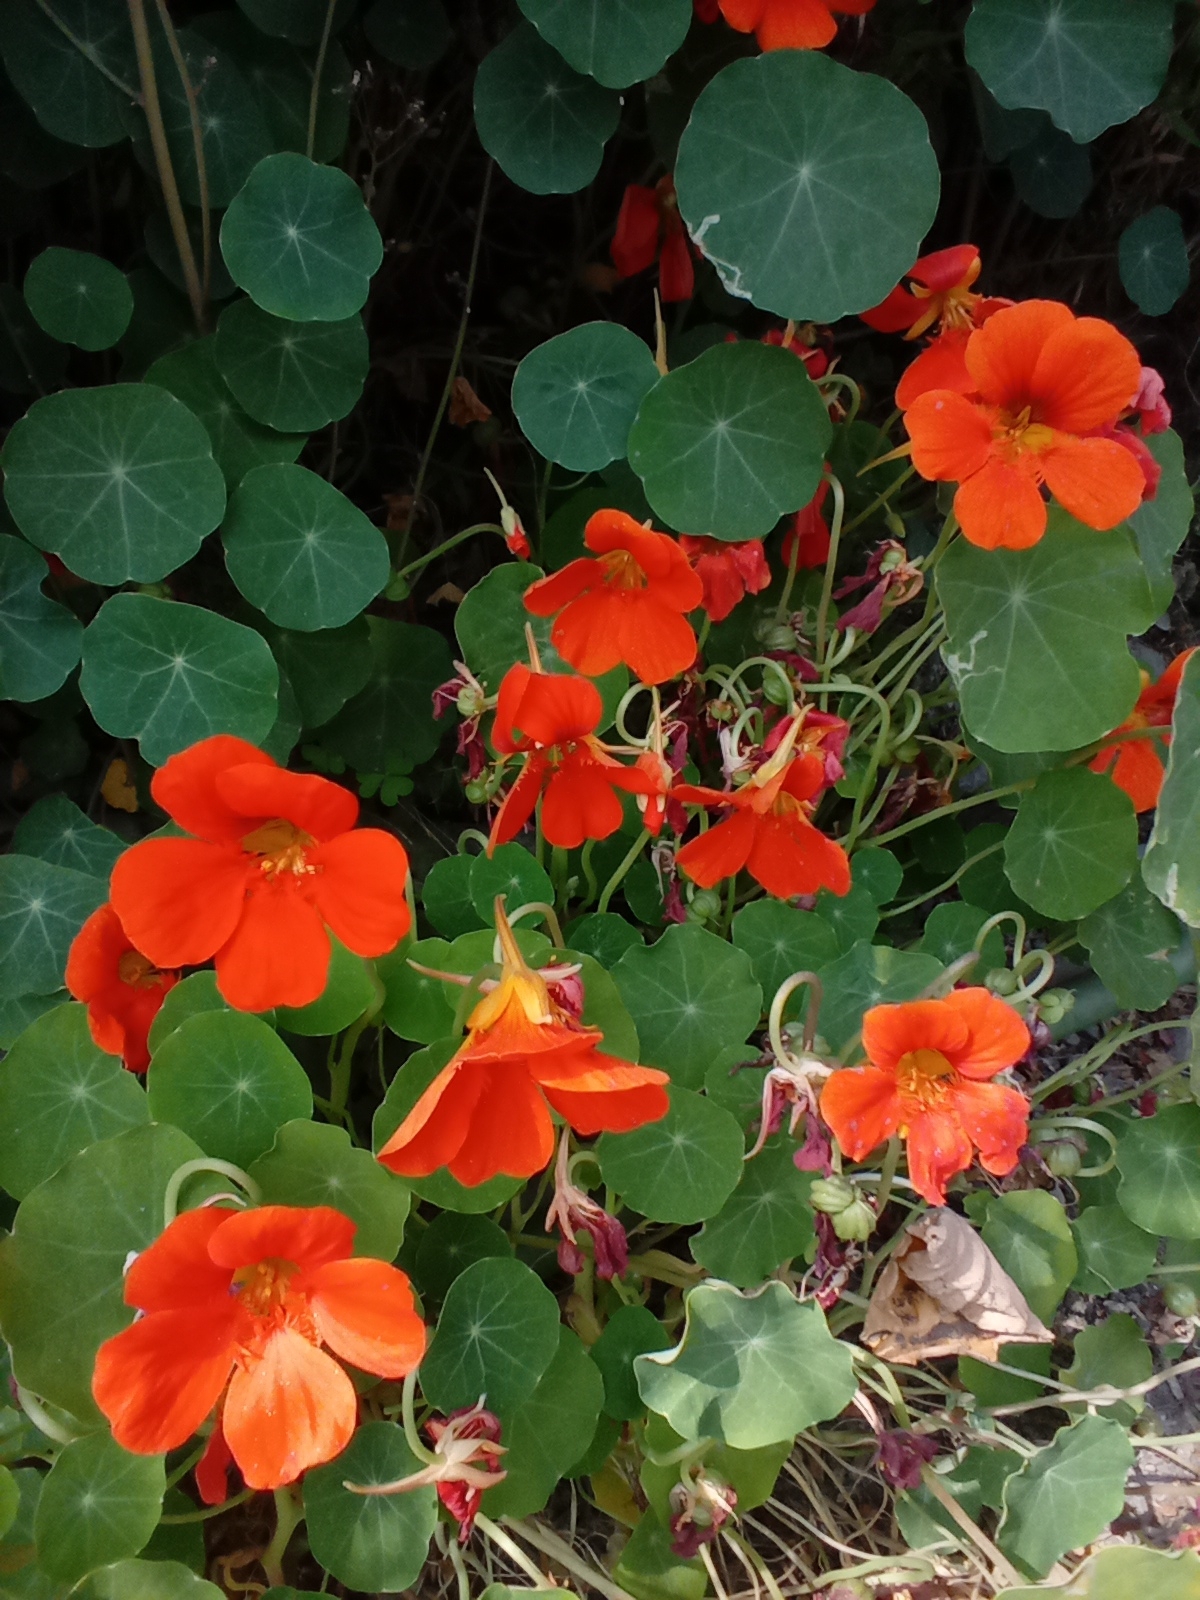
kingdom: Plantae
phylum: Tracheophyta
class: Magnoliopsida
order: Brassicales
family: Tropaeolaceae
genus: Tropaeolum
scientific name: Tropaeolum majus
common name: Nasturtium
